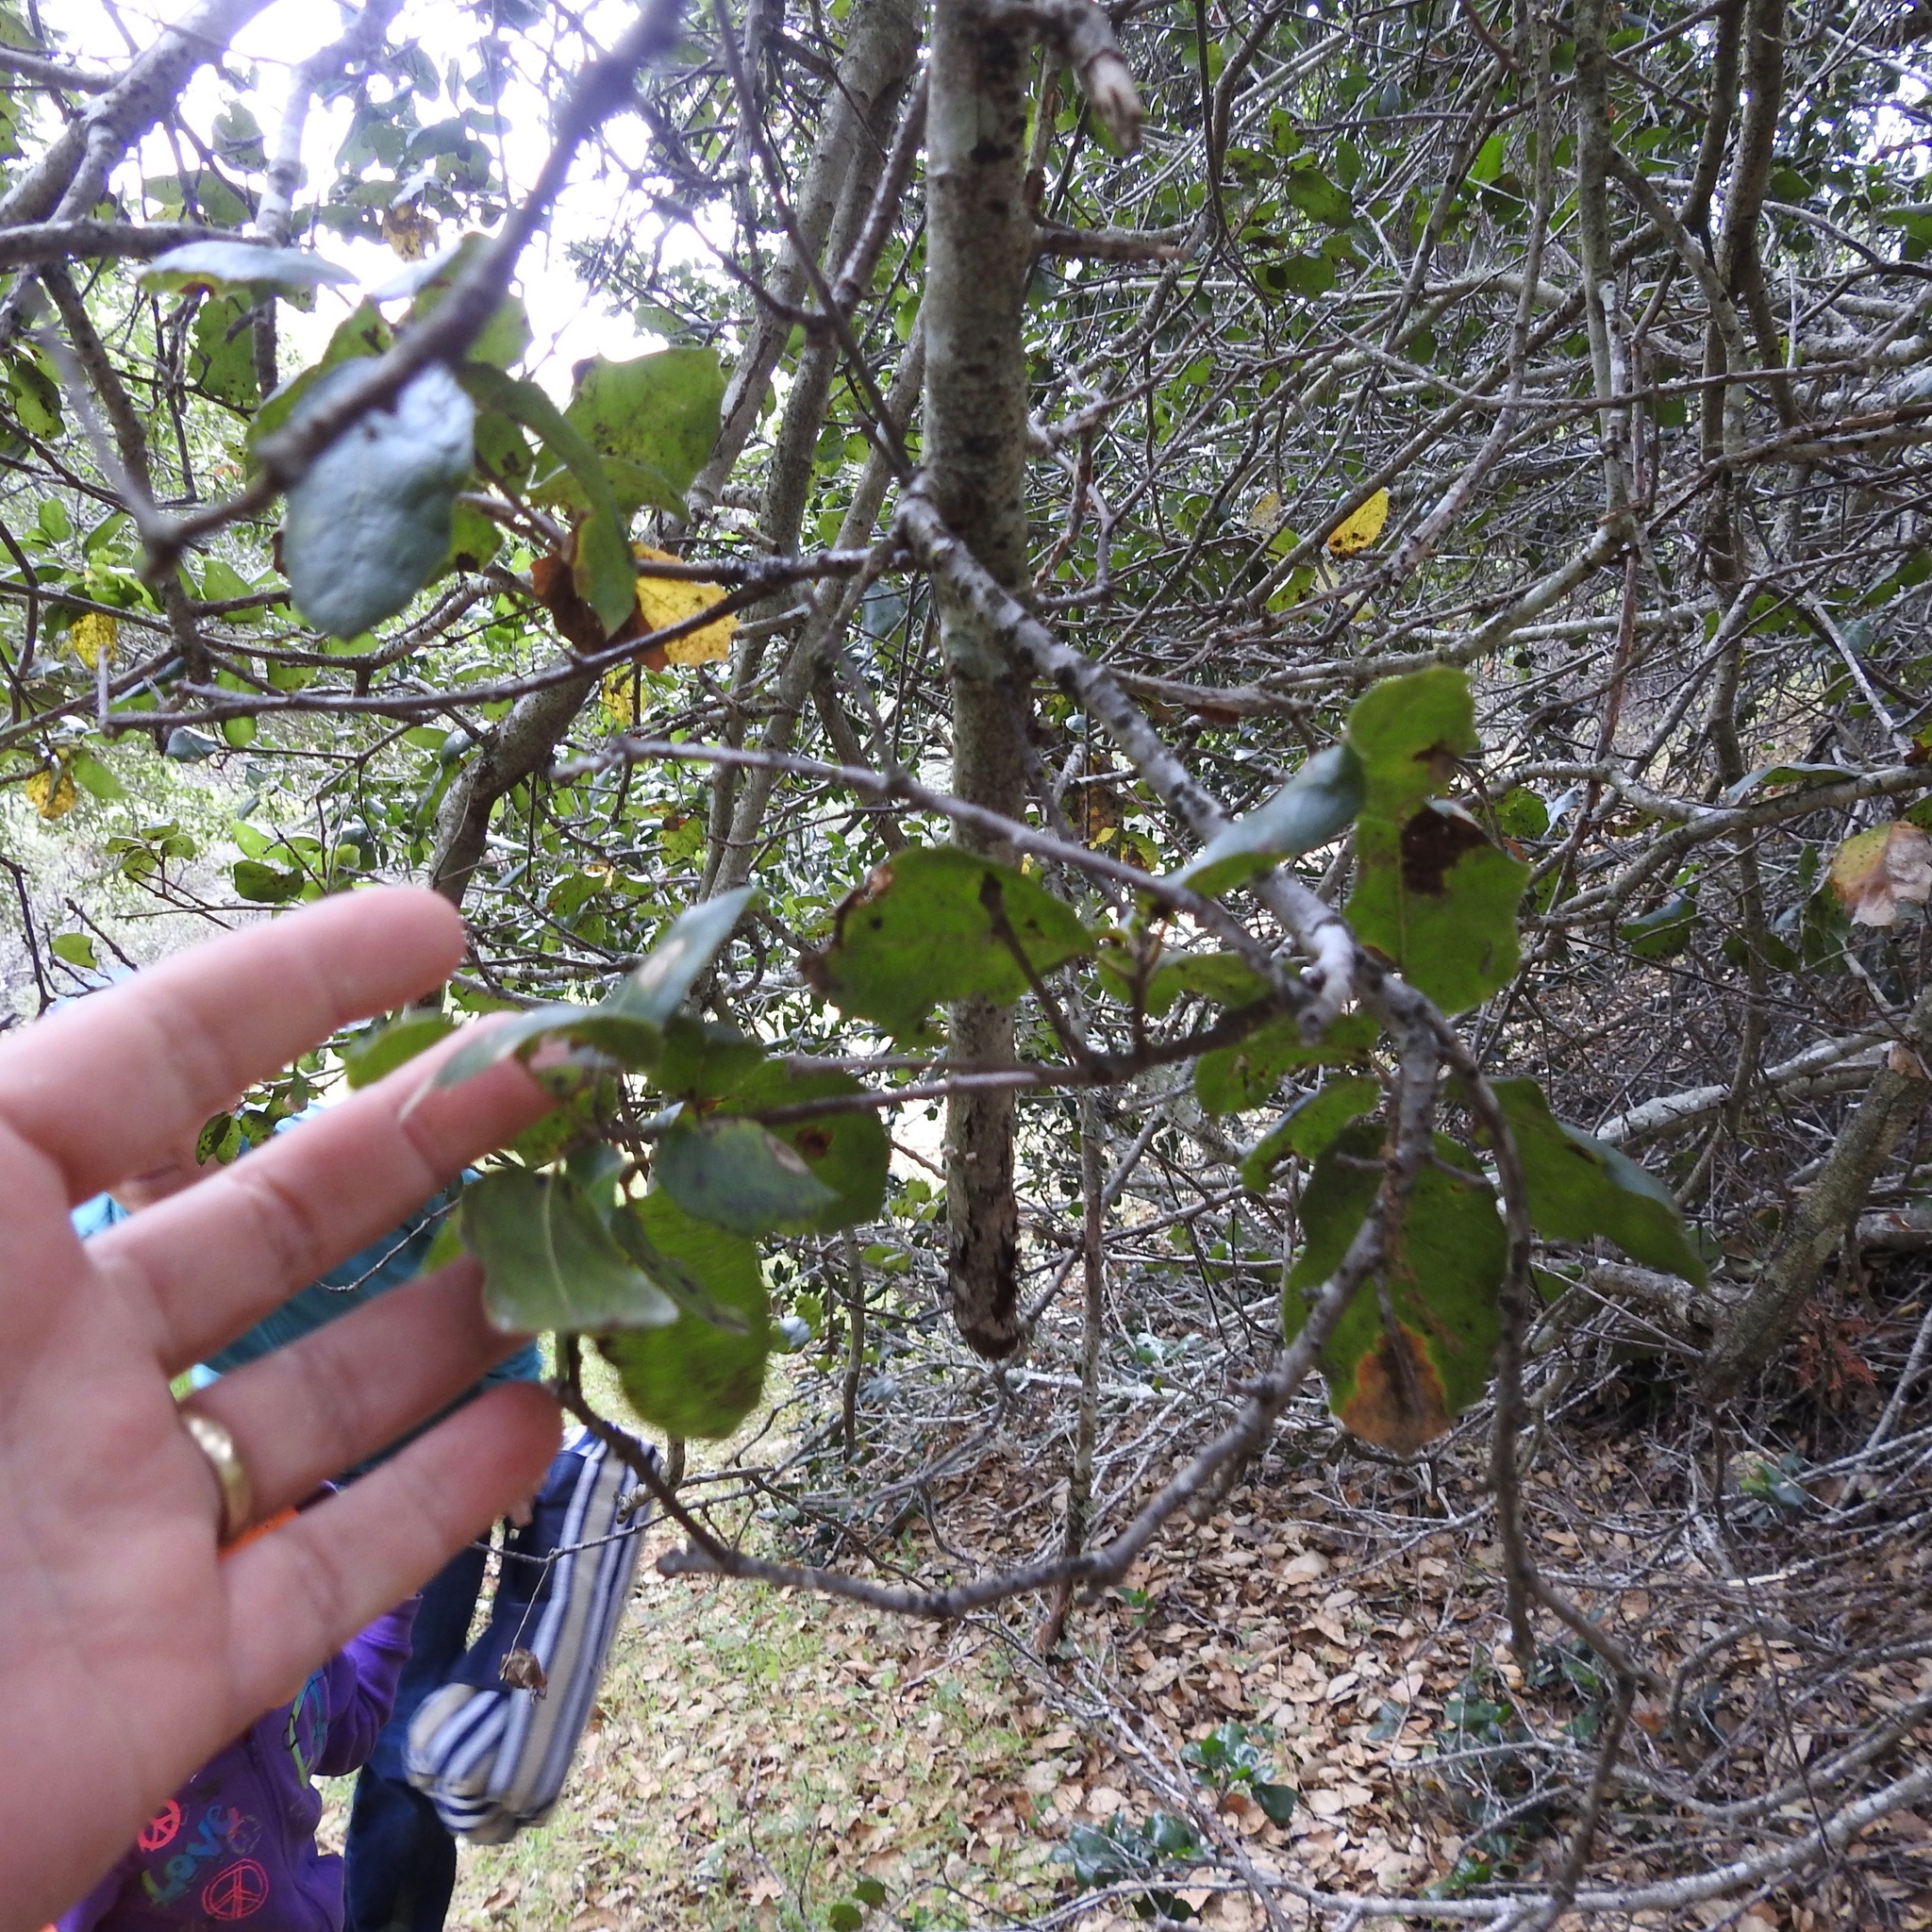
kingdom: Plantae
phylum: Tracheophyta
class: Magnoliopsida
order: Fagales
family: Fagaceae
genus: Quercus
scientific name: Quercus wislizeni
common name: Interior live oak
